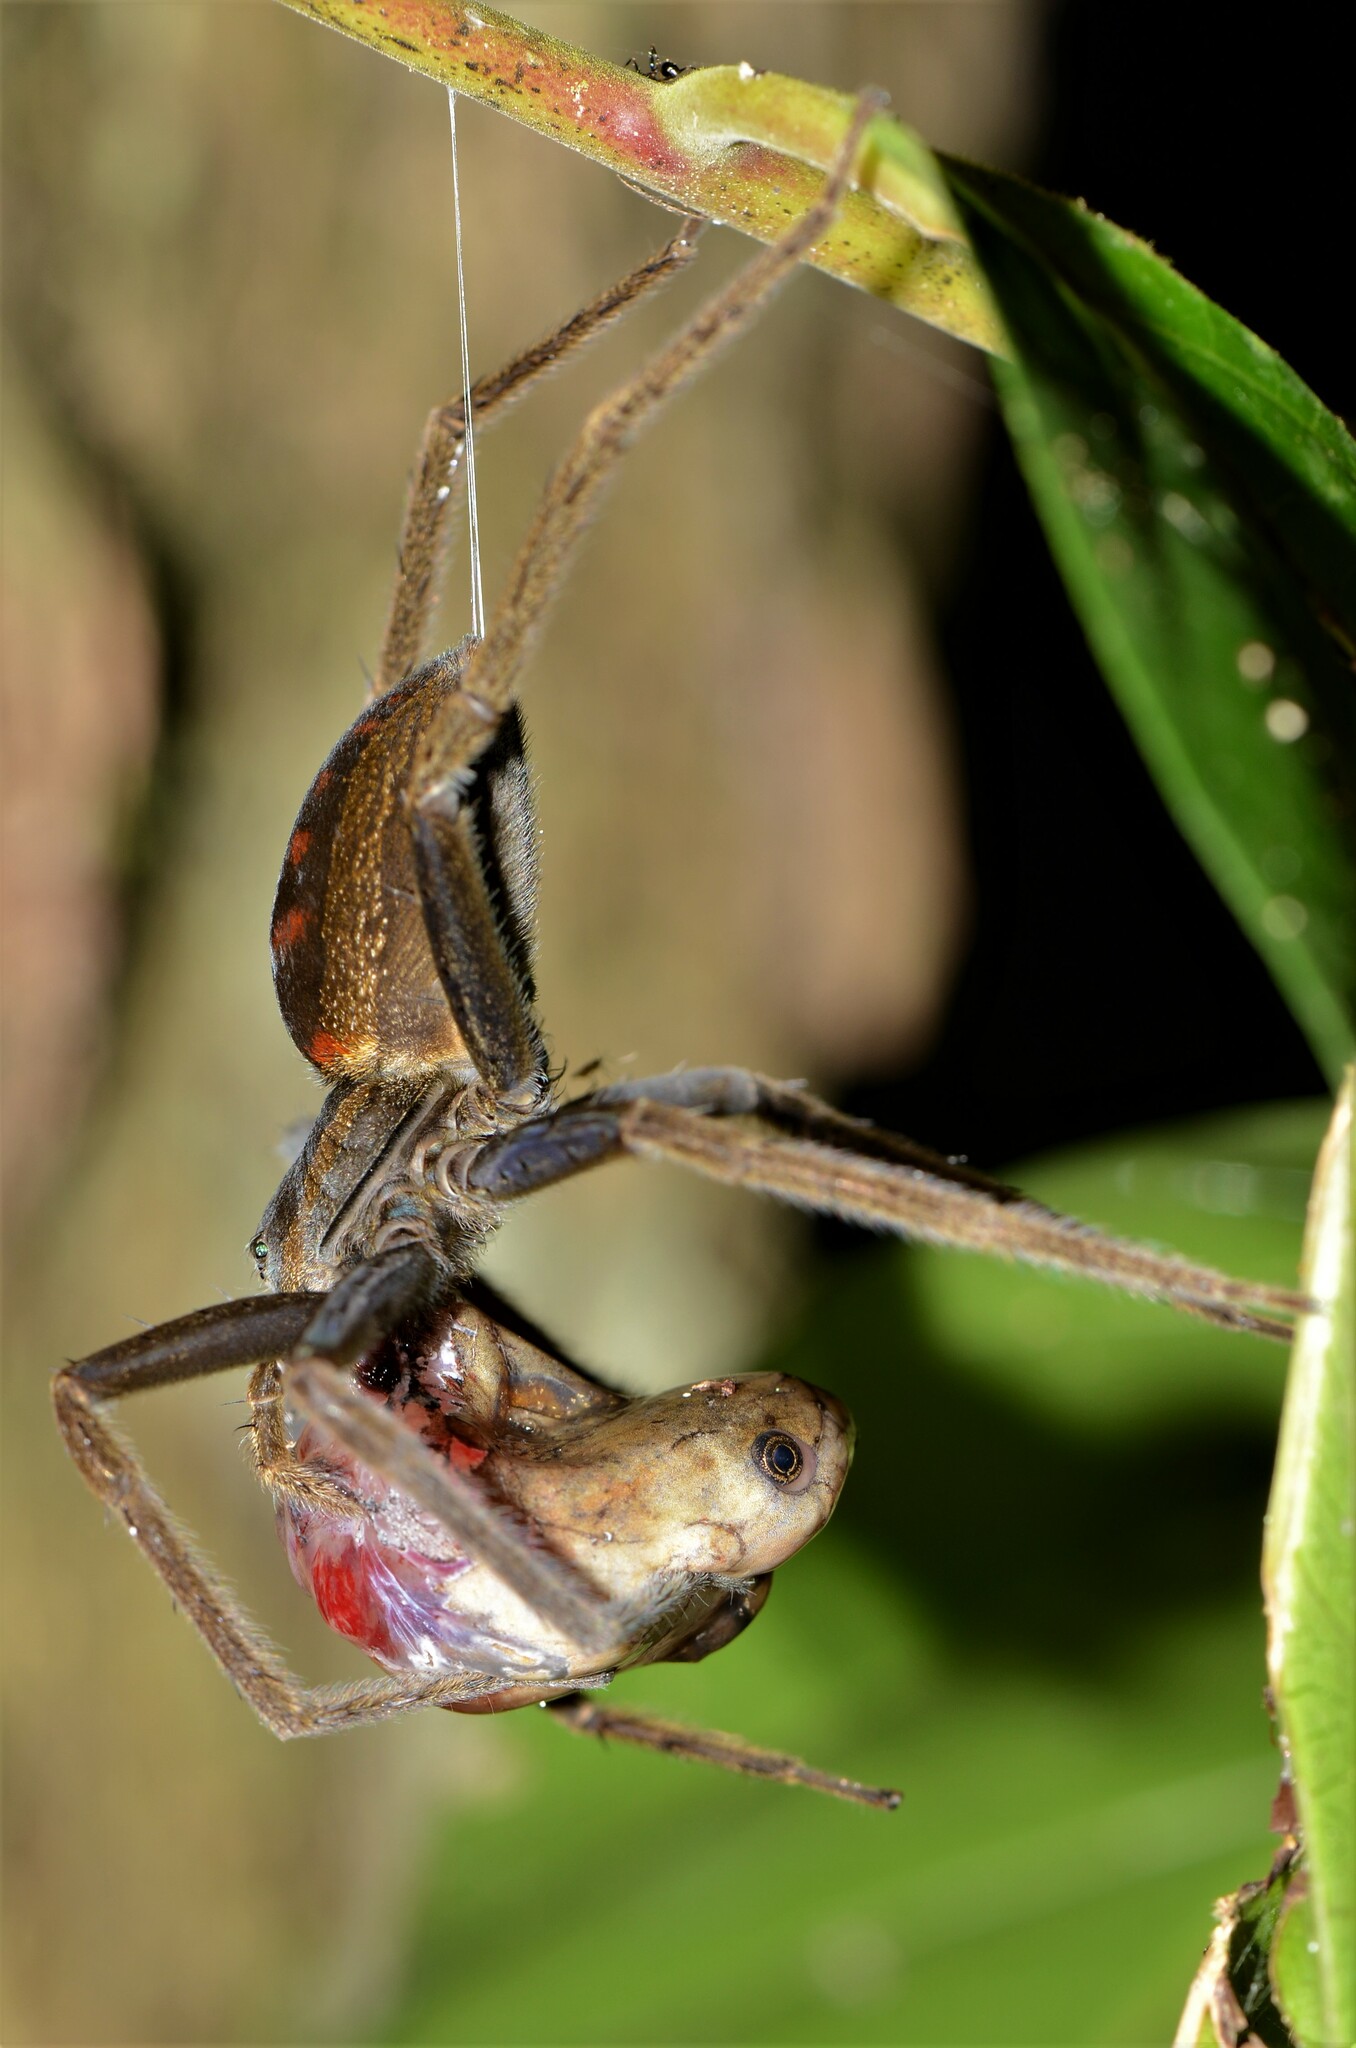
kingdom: Animalia
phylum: Chordata
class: Amphibia
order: Anura
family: Hyperoliidae
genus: Hyperolius
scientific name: Hyperolius sylvaticus
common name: Bobiri reed frog
